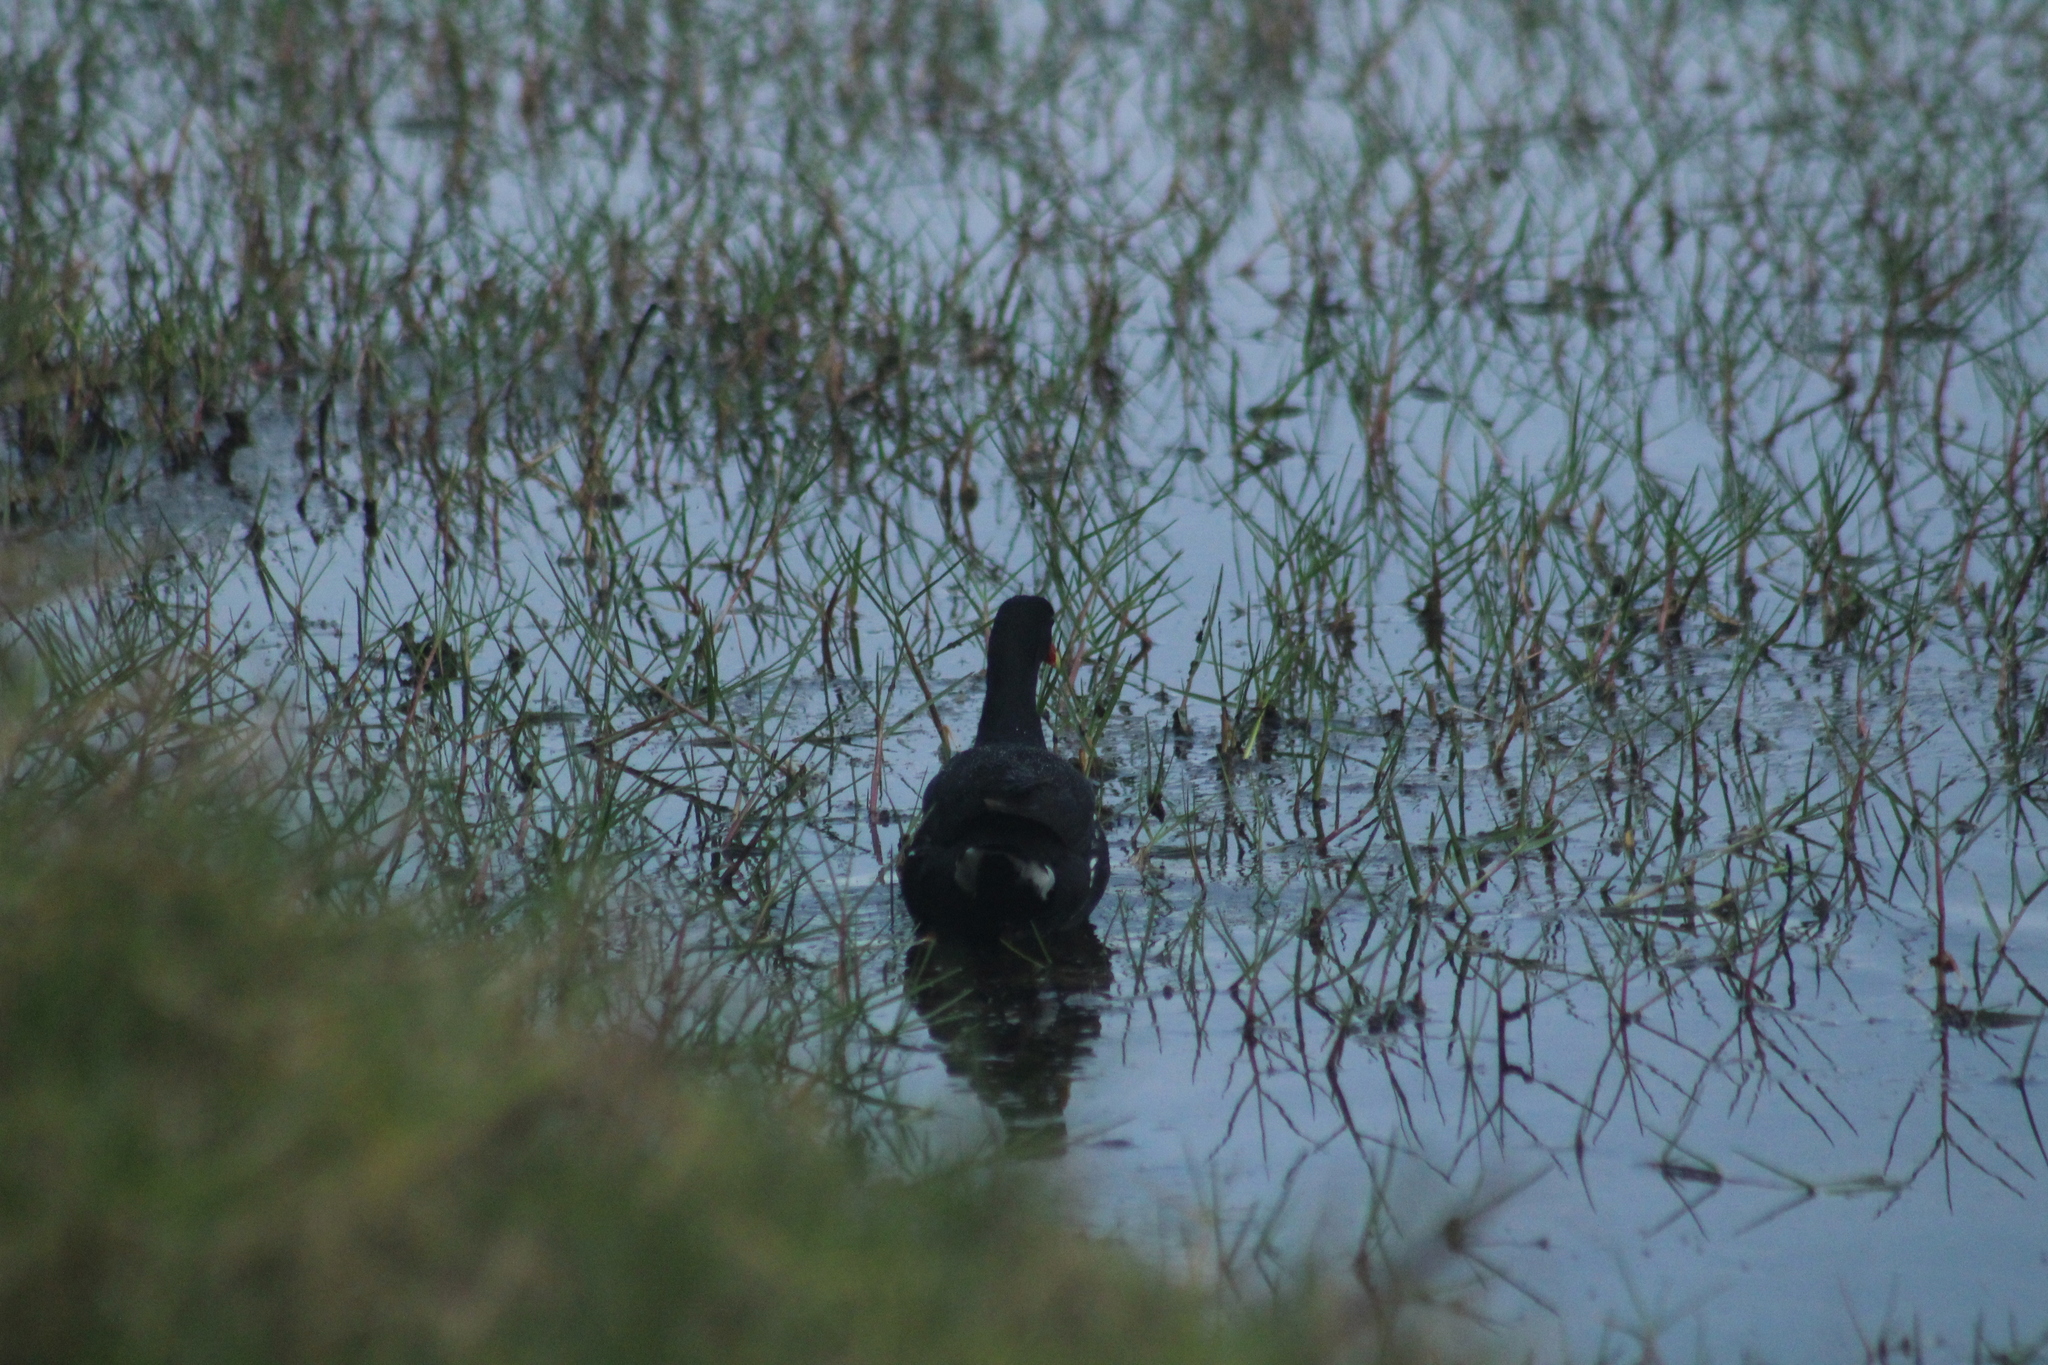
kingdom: Animalia
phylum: Chordata
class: Aves
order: Gruiformes
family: Rallidae
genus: Gallinula
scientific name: Gallinula chloropus
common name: Common moorhen
